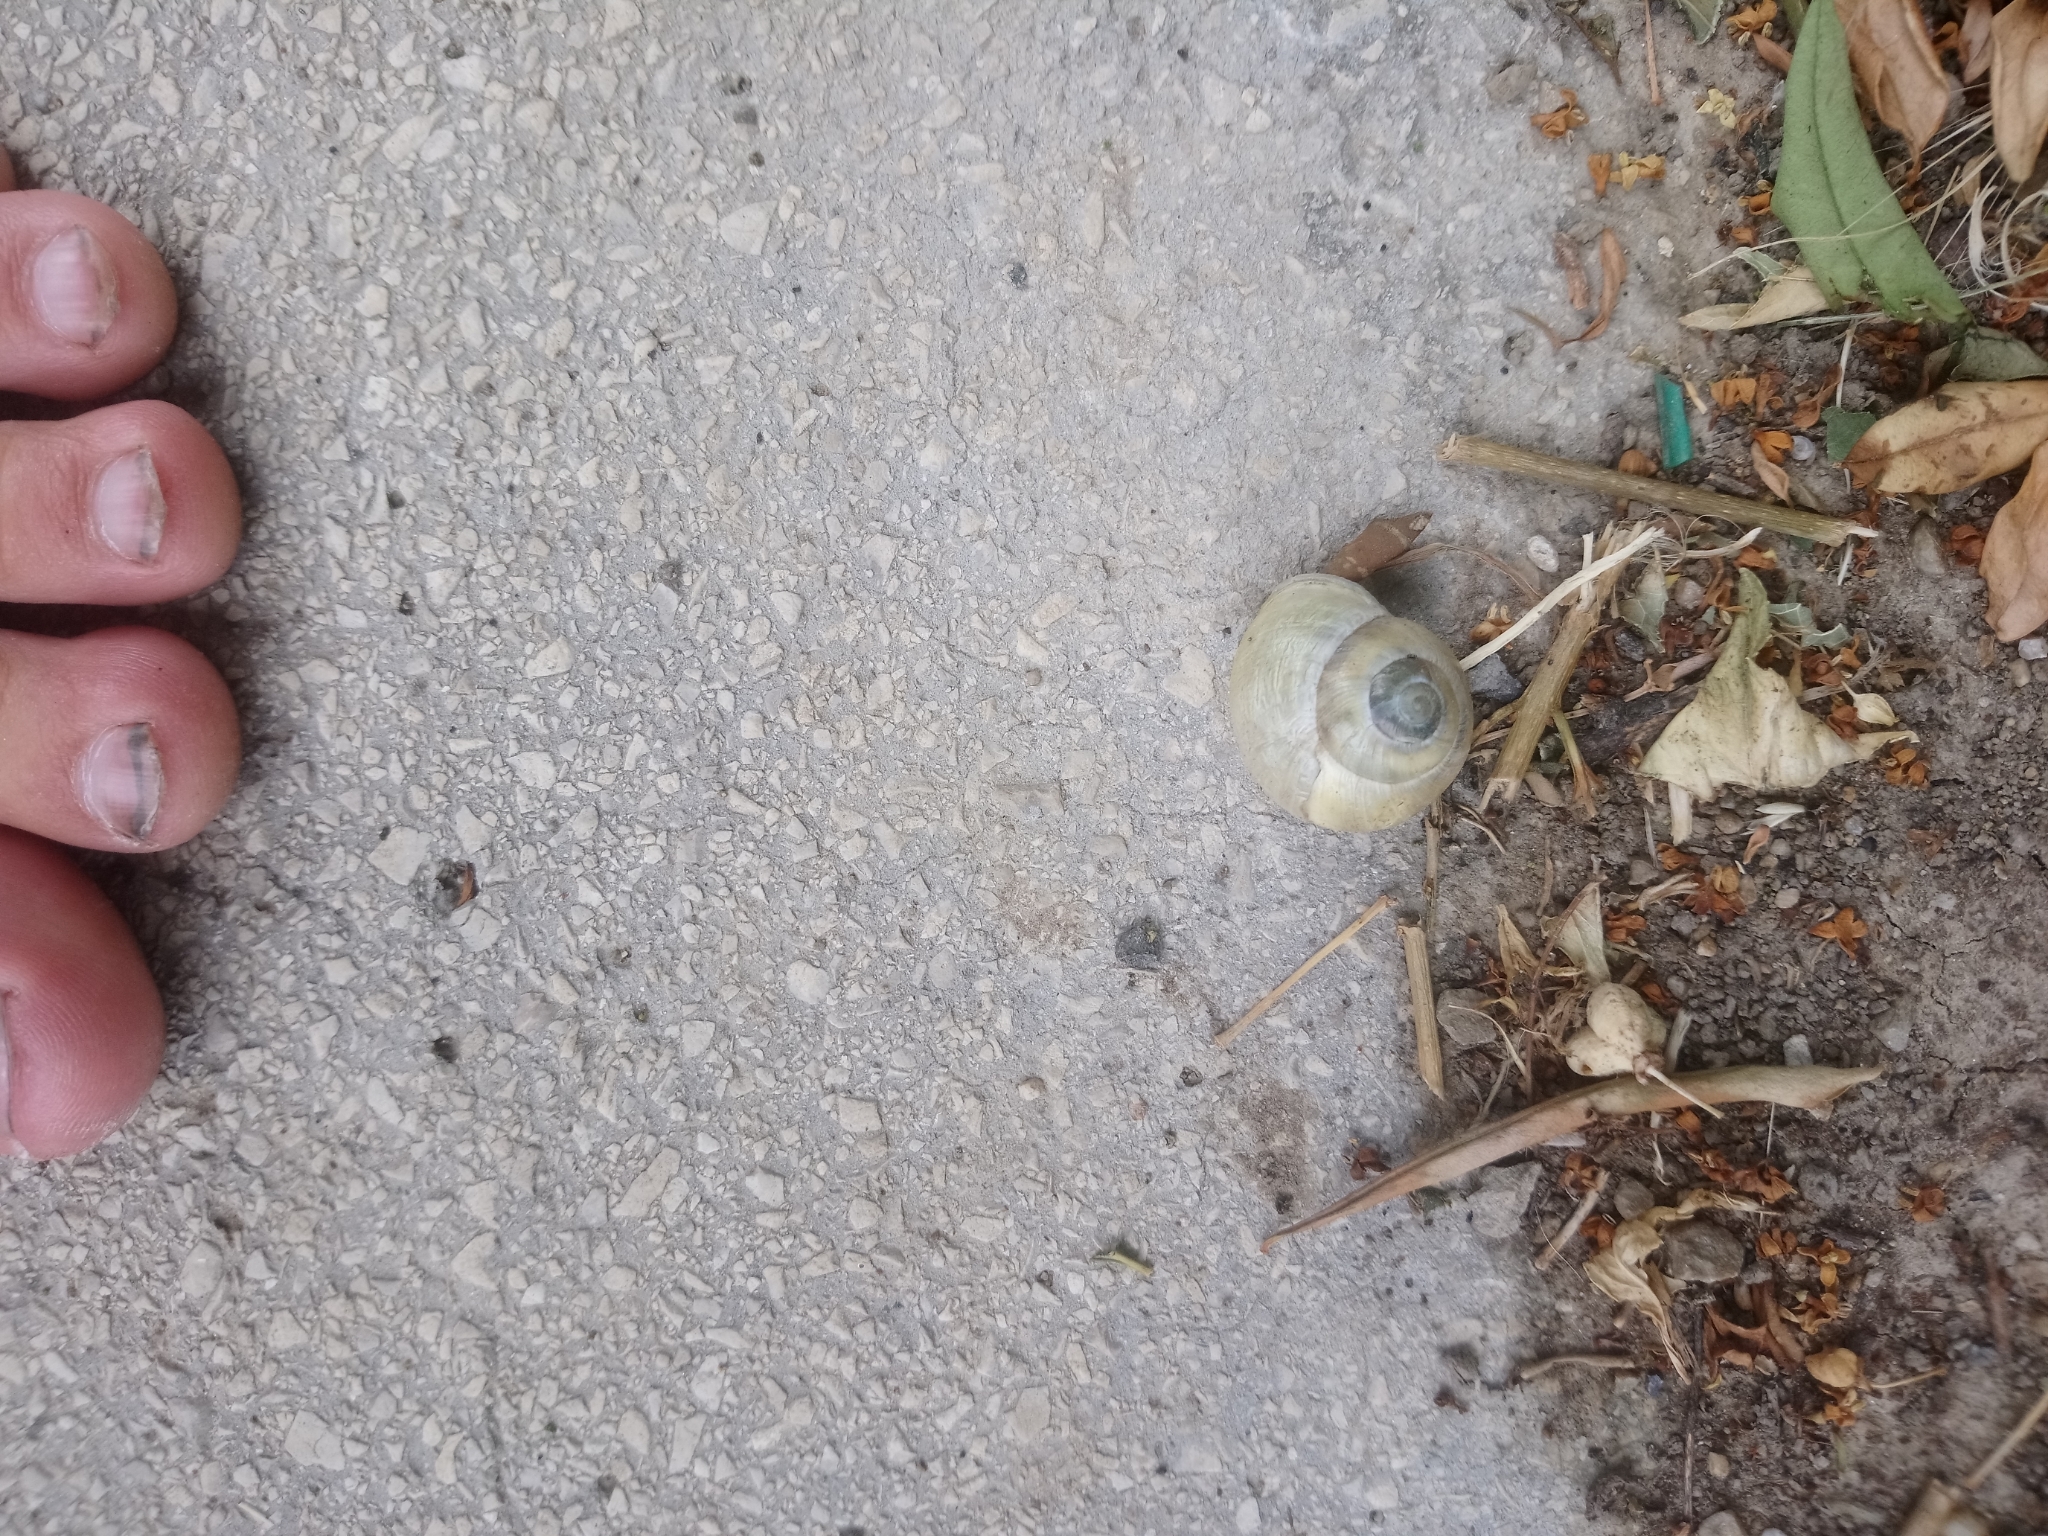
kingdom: Animalia
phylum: Mollusca
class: Gastropoda
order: Stylommatophora
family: Helicidae
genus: Cepaea
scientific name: Cepaea hortensis
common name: White-lip gardensnail
